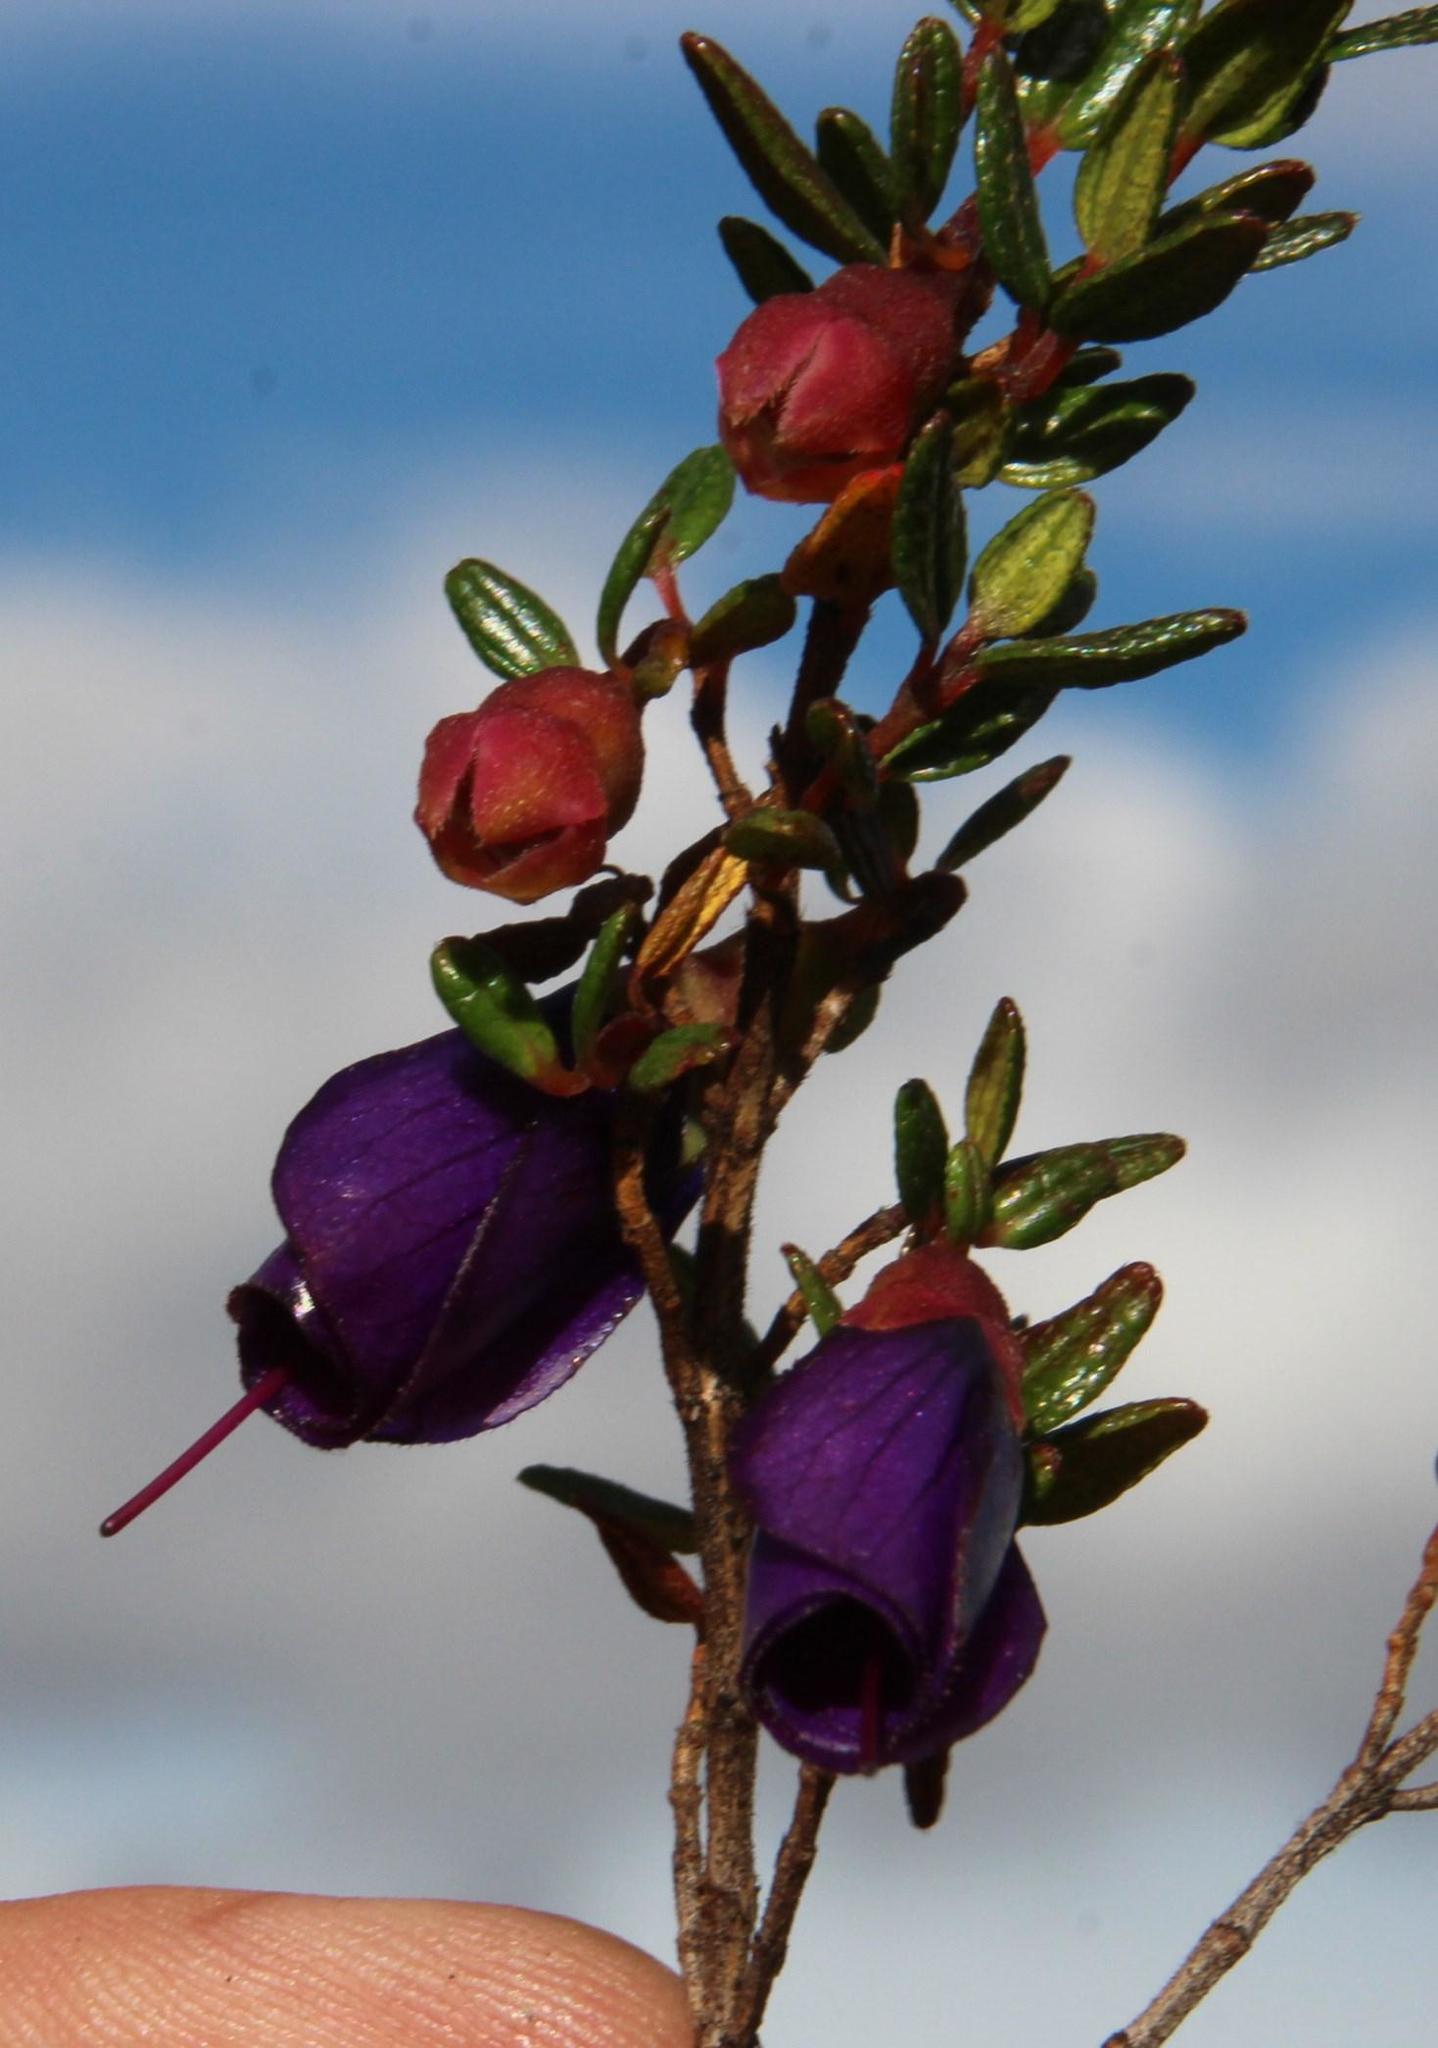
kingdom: Plantae
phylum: Tracheophyta
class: Magnoliopsida
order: Myrtales
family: Melastomataceae
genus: Brachyotum
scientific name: Brachyotum rostratum
